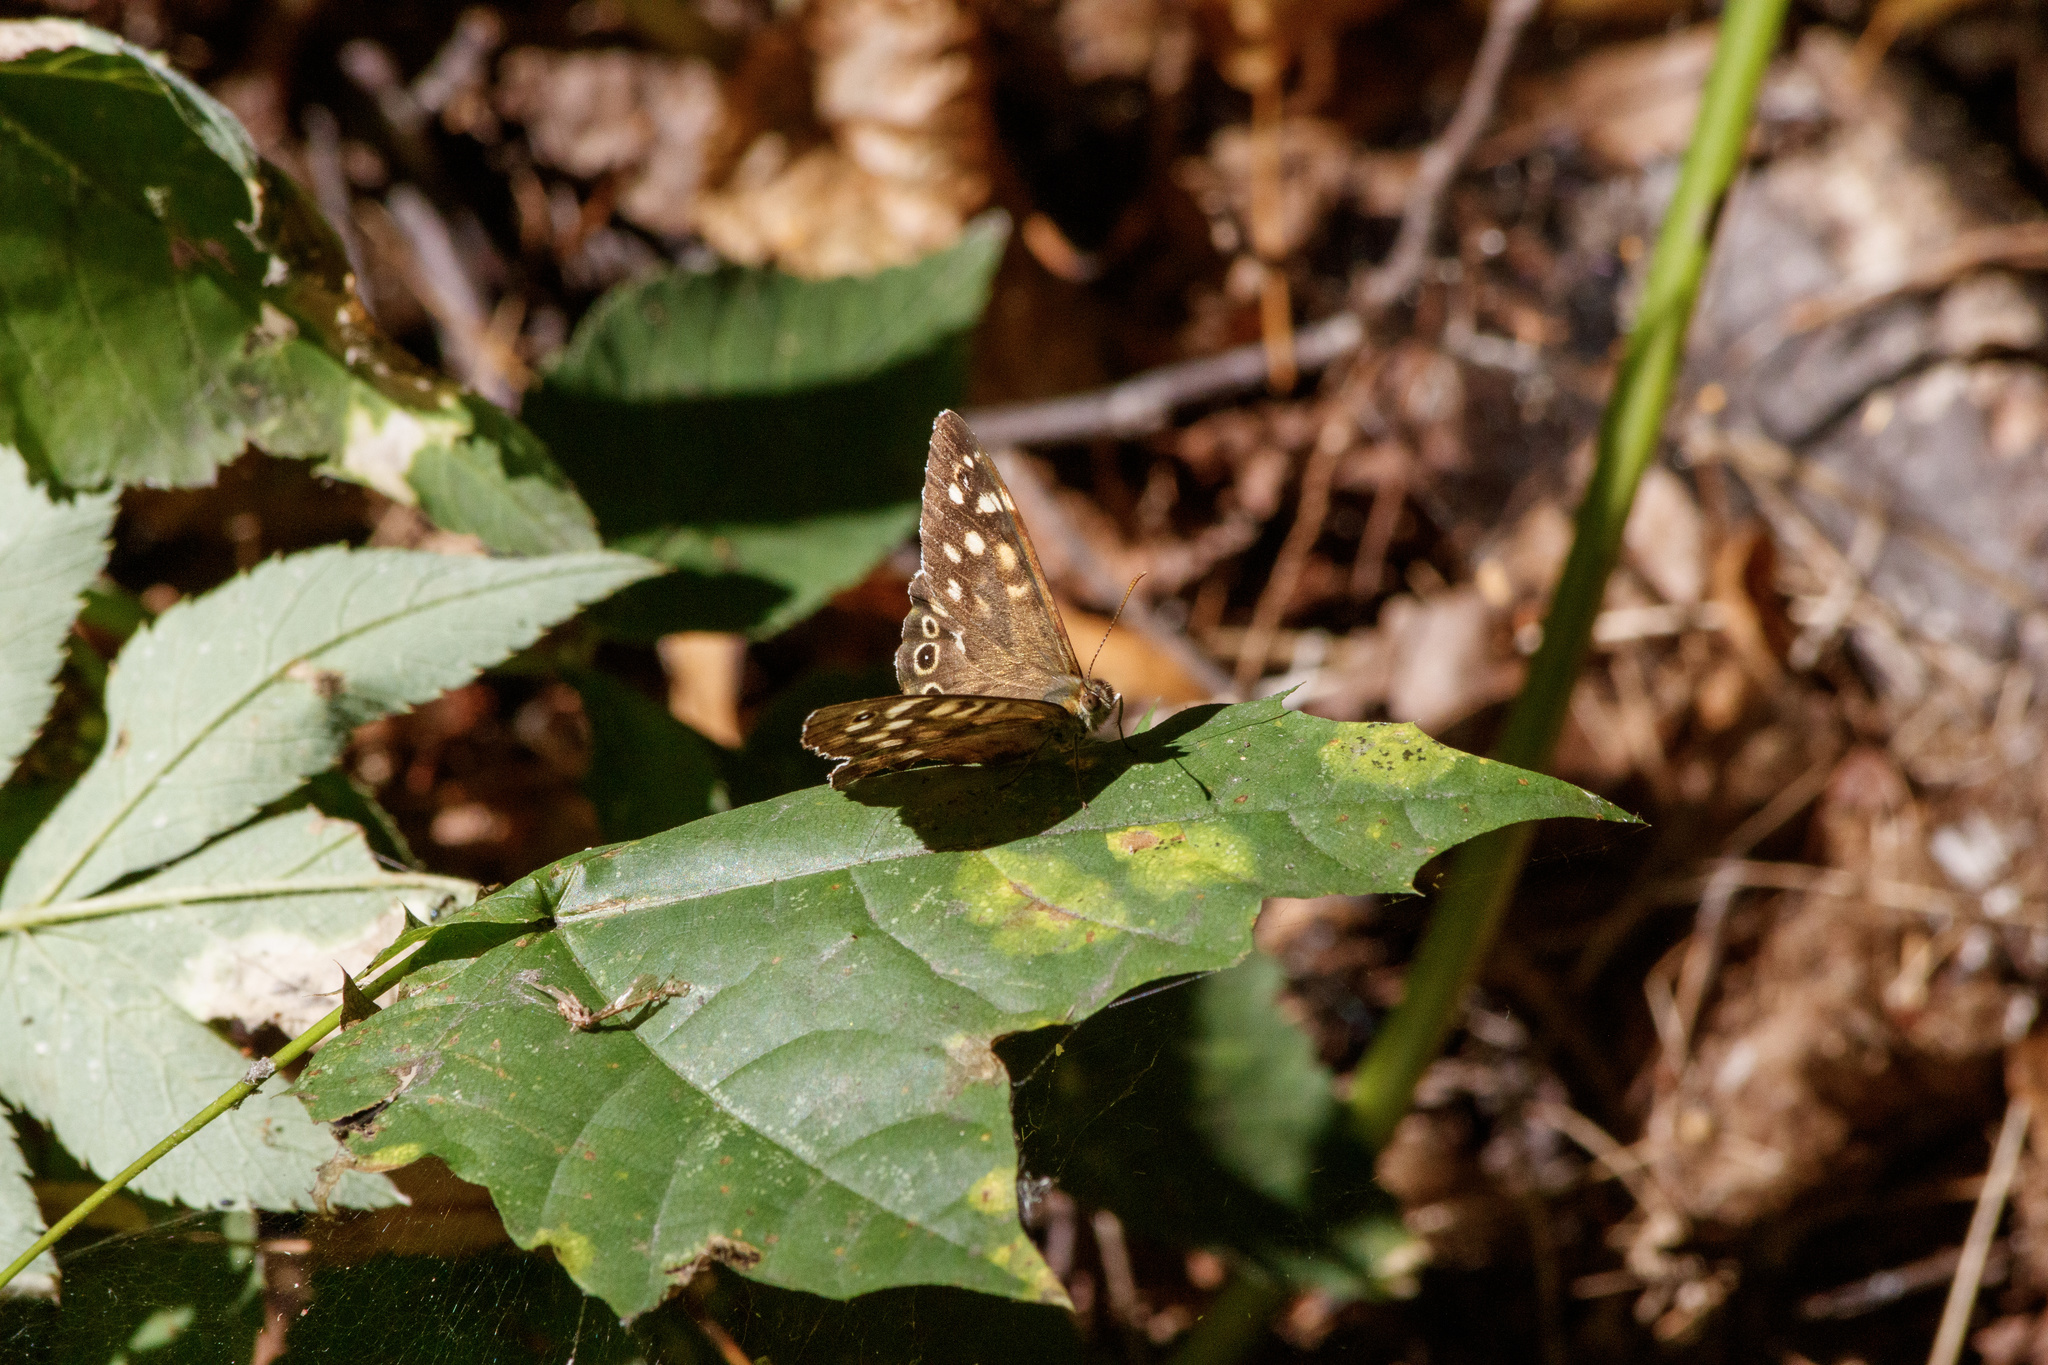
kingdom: Animalia
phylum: Arthropoda
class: Insecta
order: Lepidoptera
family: Nymphalidae
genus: Pararge
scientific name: Pararge aegeria
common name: Speckled wood
